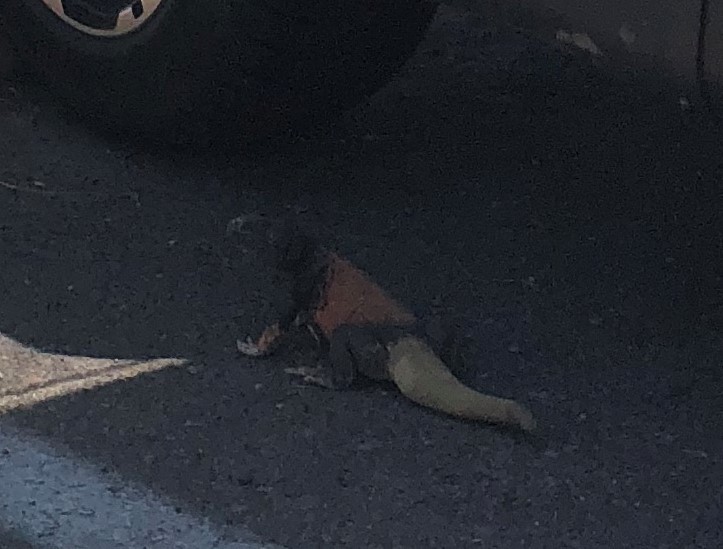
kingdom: Animalia
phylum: Chordata
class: Squamata
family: Iguanidae
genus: Sauromalus
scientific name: Sauromalus ater
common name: Northern chuckwalla
